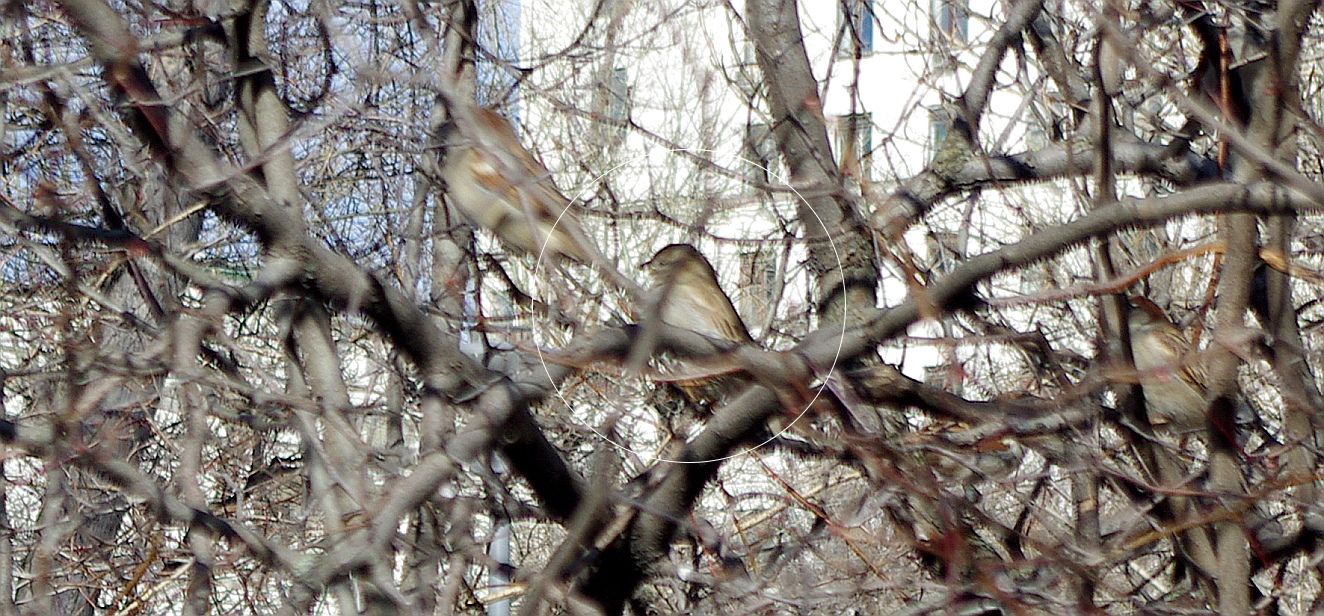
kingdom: Animalia
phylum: Chordata
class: Aves
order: Passeriformes
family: Passeridae
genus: Passer
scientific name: Passer domesticus
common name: House sparrow
